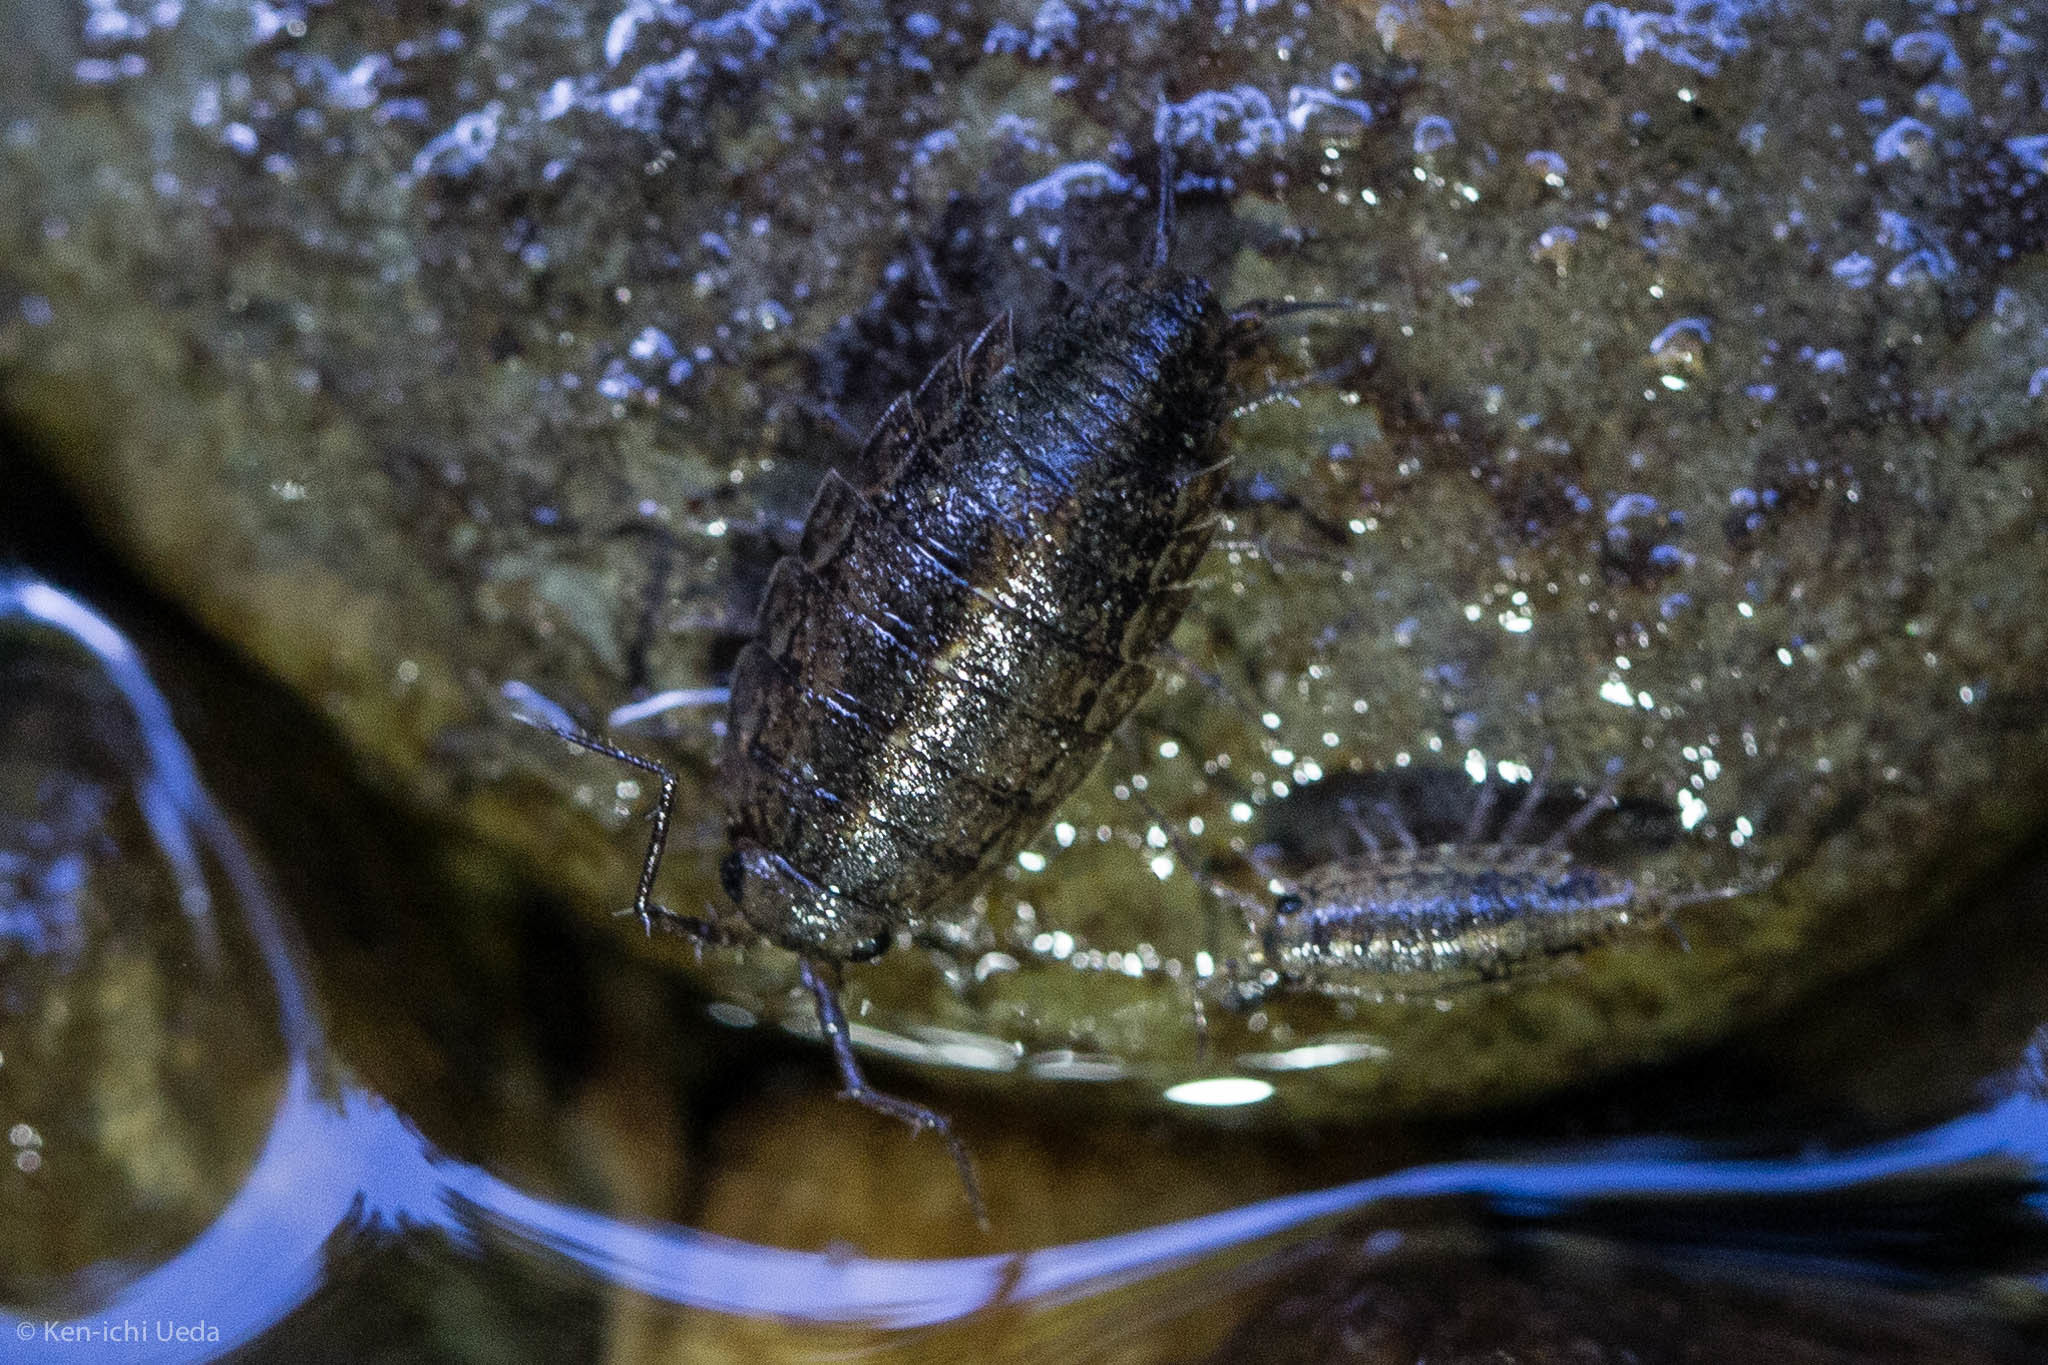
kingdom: Animalia
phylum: Arthropoda
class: Malacostraca
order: Isopoda
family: Ligiidae
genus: Ligidium
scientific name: Ligidium latum
